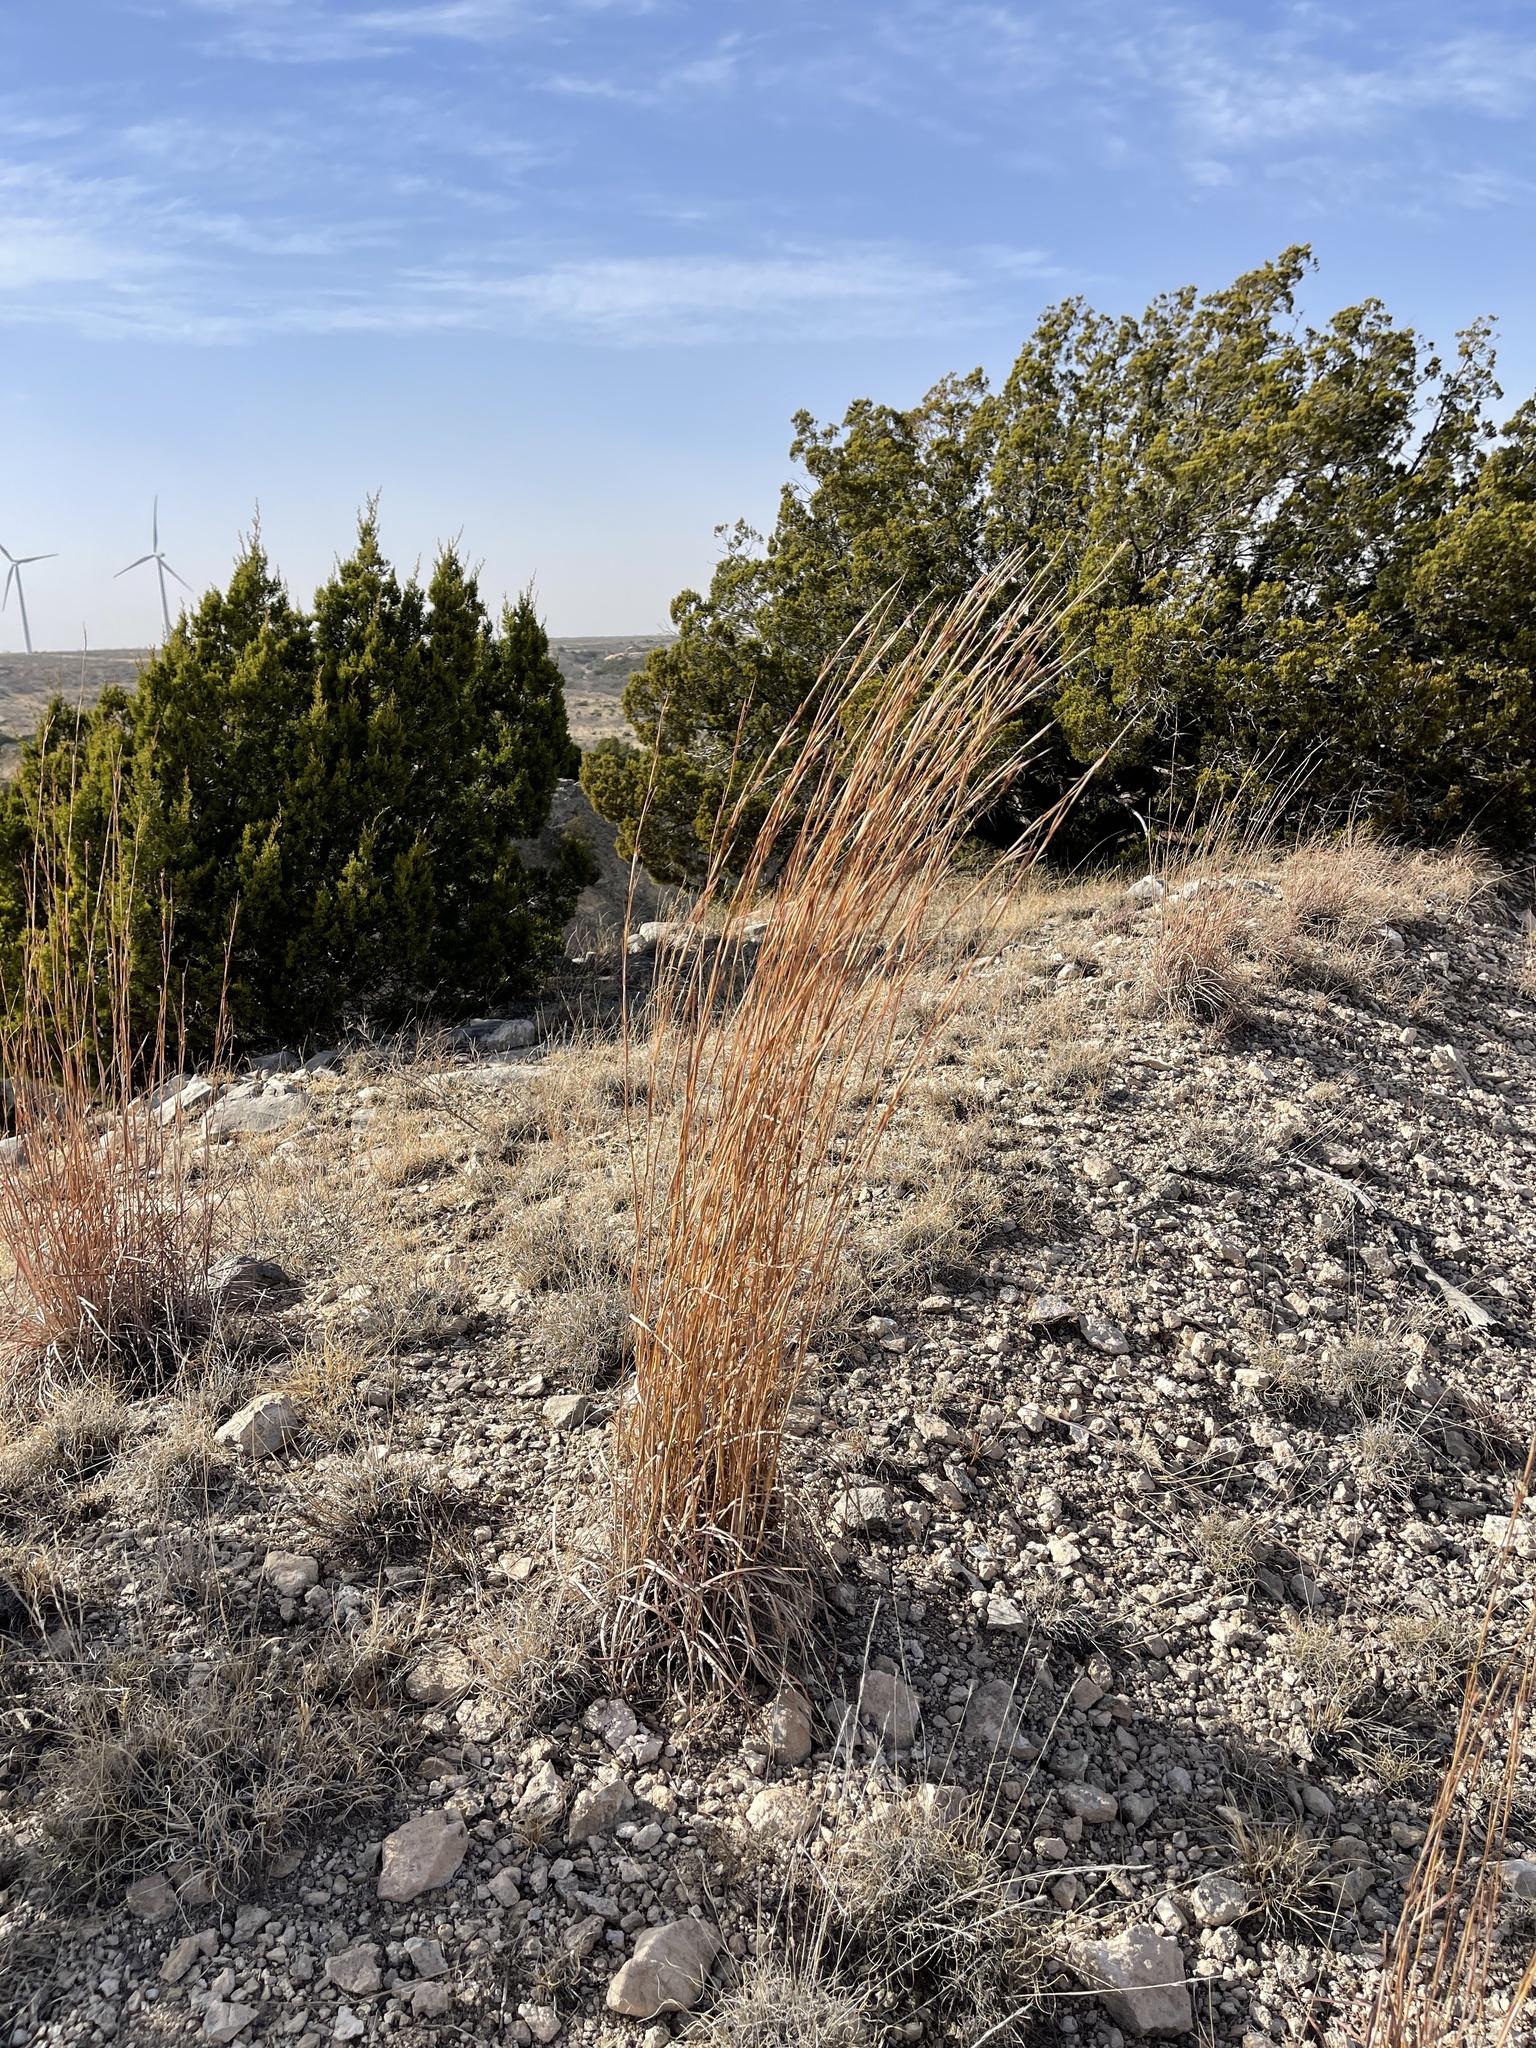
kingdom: Plantae
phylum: Tracheophyta
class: Liliopsida
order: Poales
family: Poaceae
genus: Schizachyrium
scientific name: Schizachyrium scoparium
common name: Little bluestem
